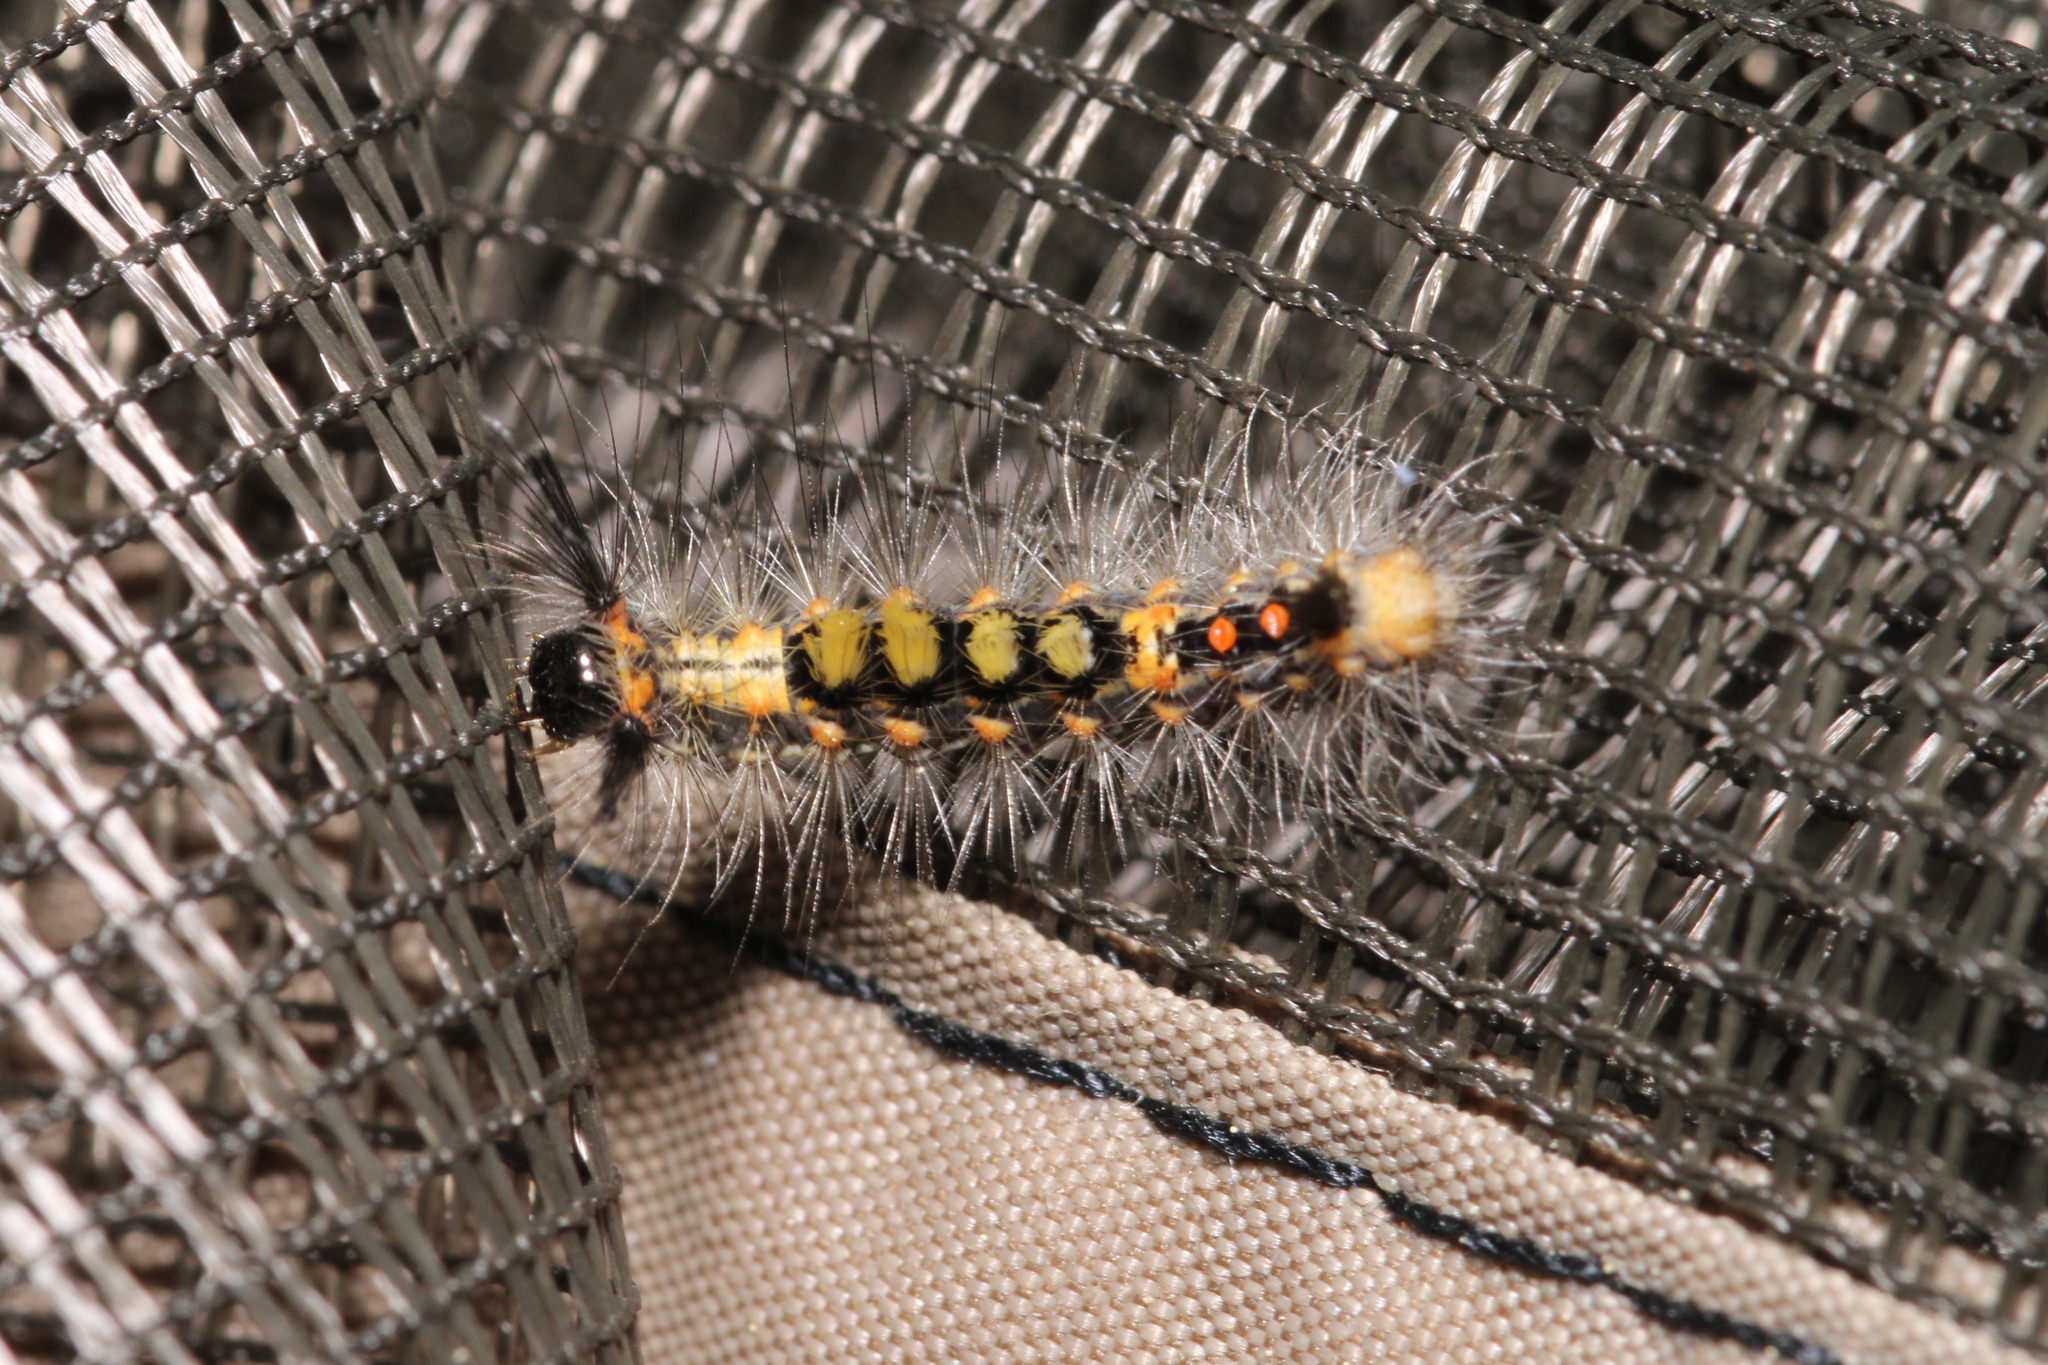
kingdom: Animalia
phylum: Arthropoda
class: Insecta
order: Lepidoptera
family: Erebidae
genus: Orgyia
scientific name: Orgyia antiqua
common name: Vapourer
